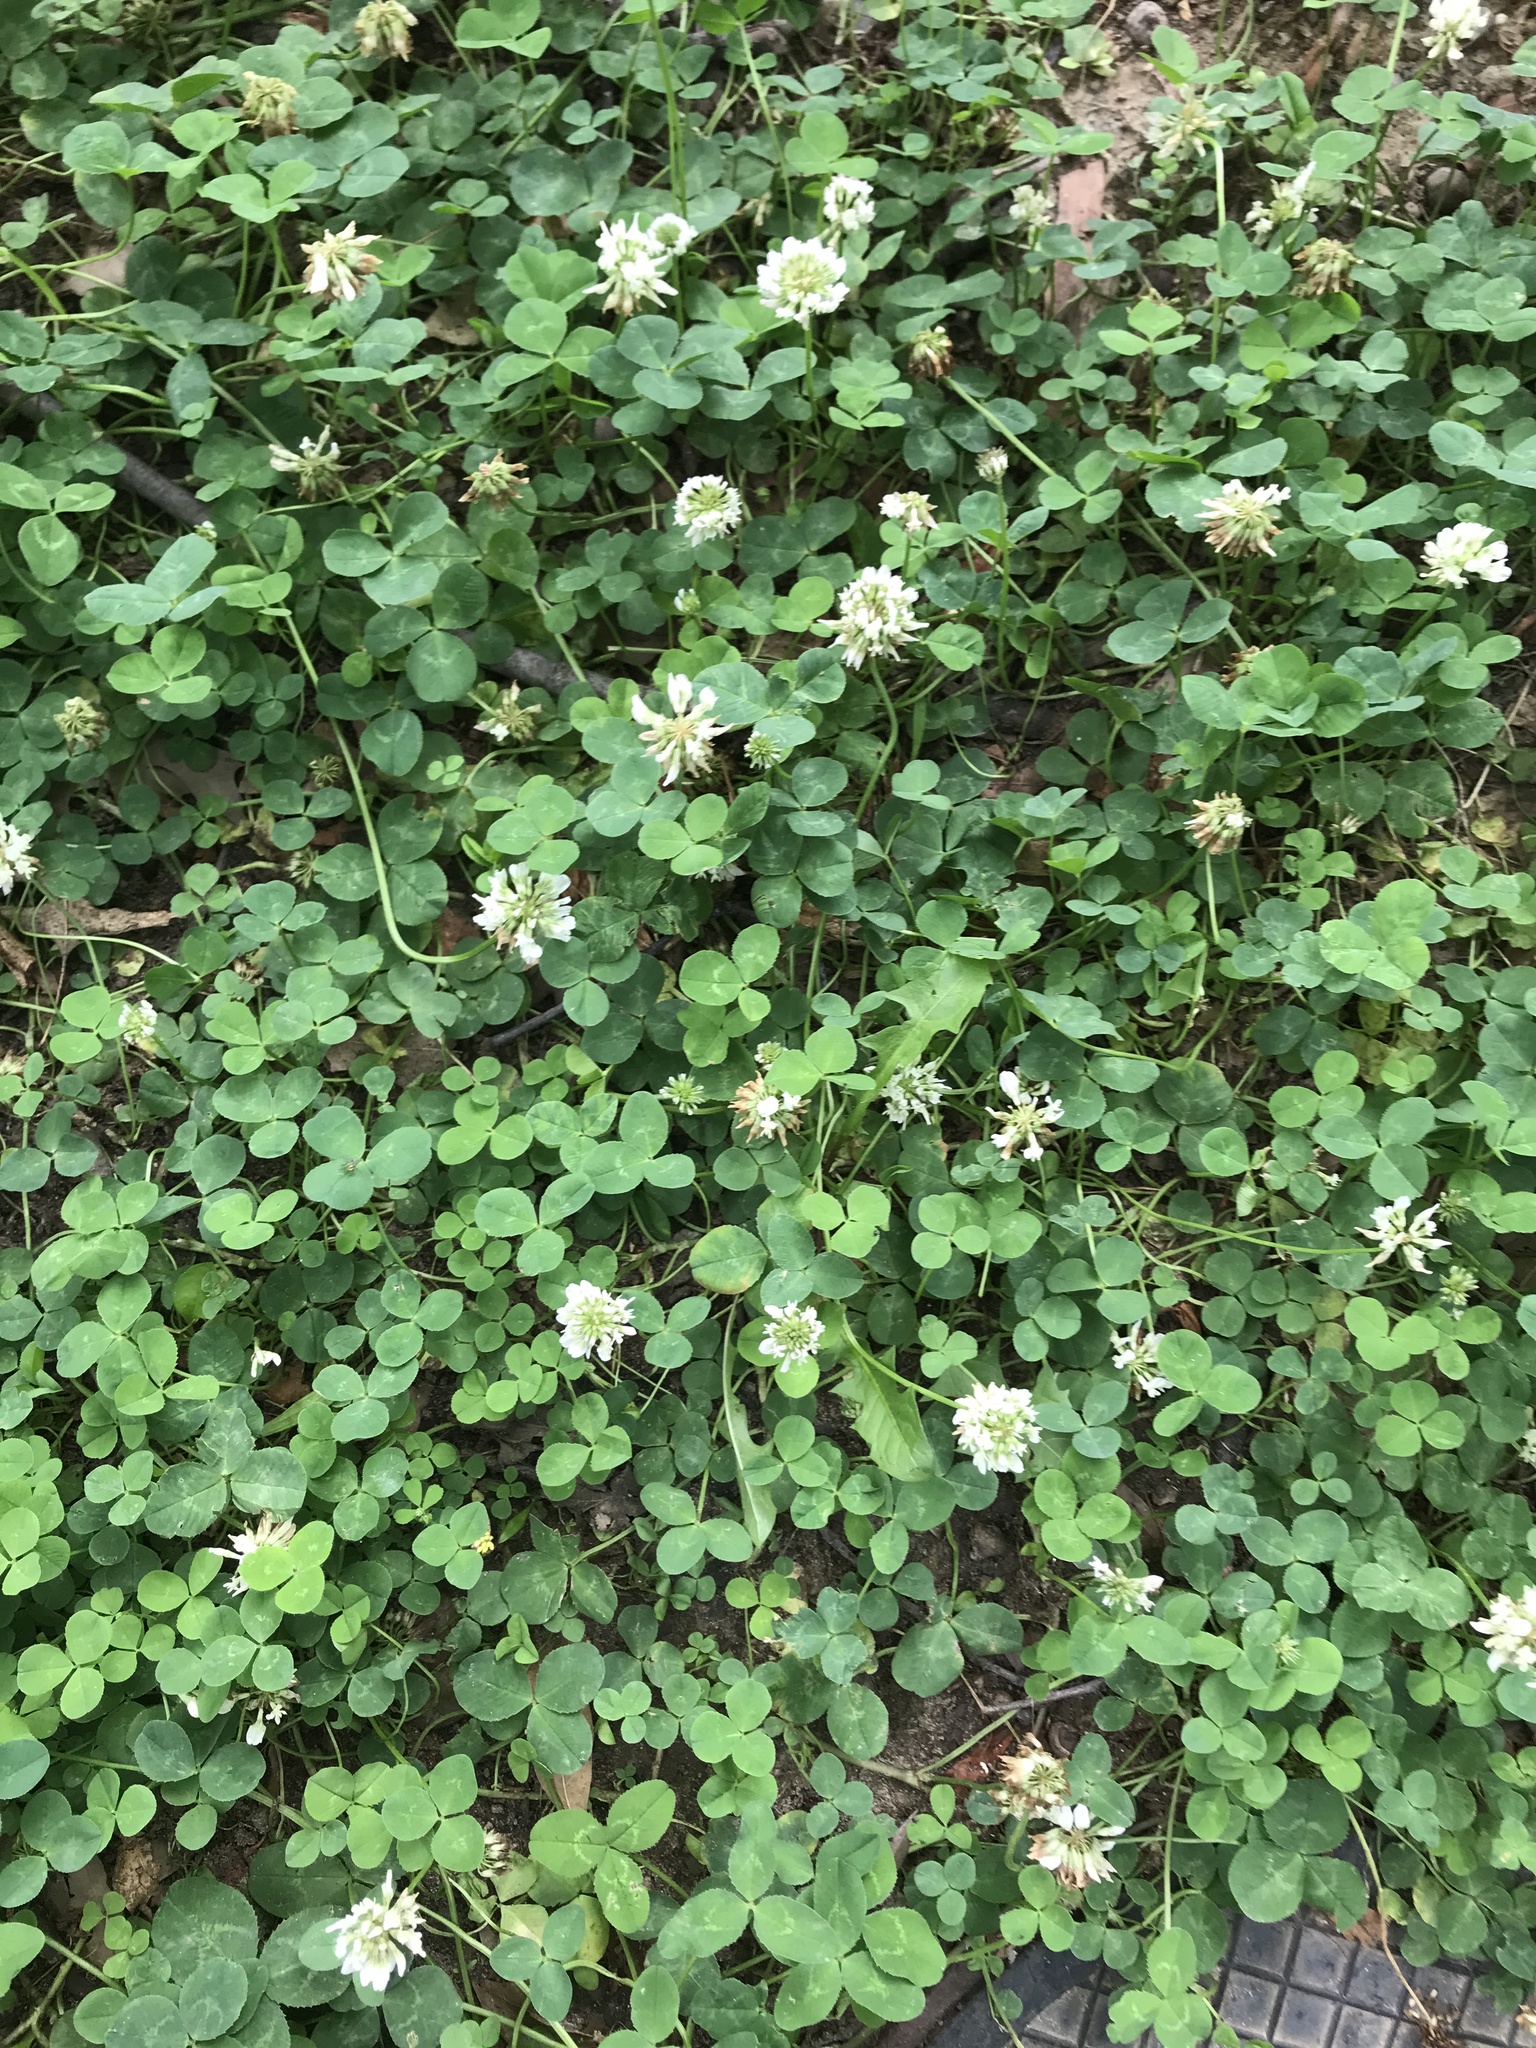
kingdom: Plantae
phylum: Tracheophyta
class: Magnoliopsida
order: Fabales
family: Fabaceae
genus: Trifolium
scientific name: Trifolium repens
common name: White clover
